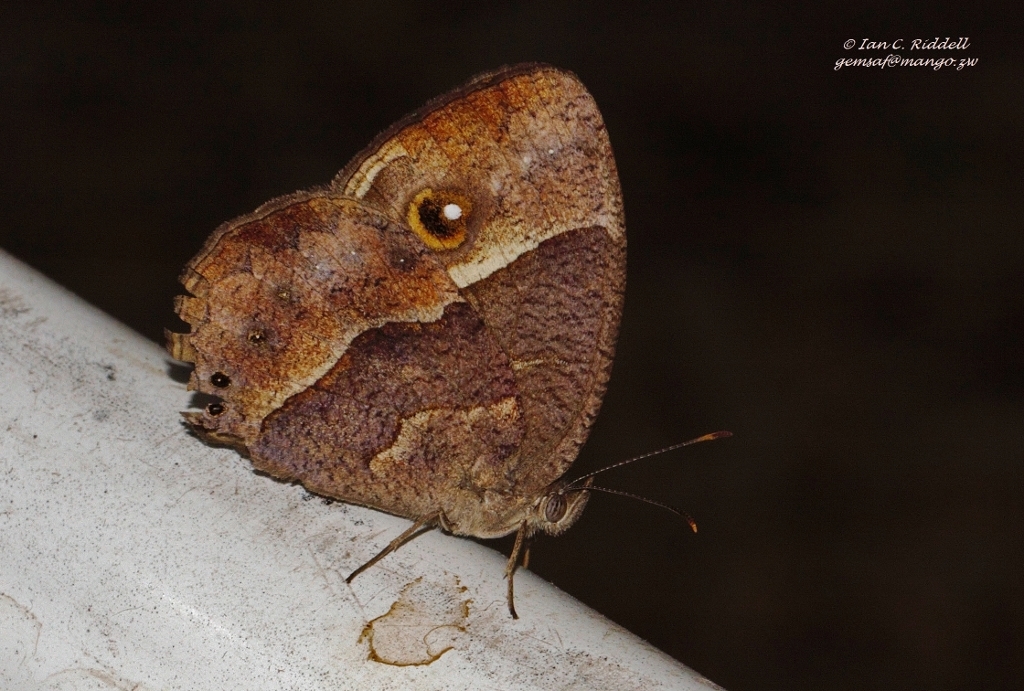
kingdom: Animalia
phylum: Arthropoda
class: Insecta
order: Lepidoptera
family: Nymphalidae
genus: Mycalesis
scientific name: Mycalesis anynana
